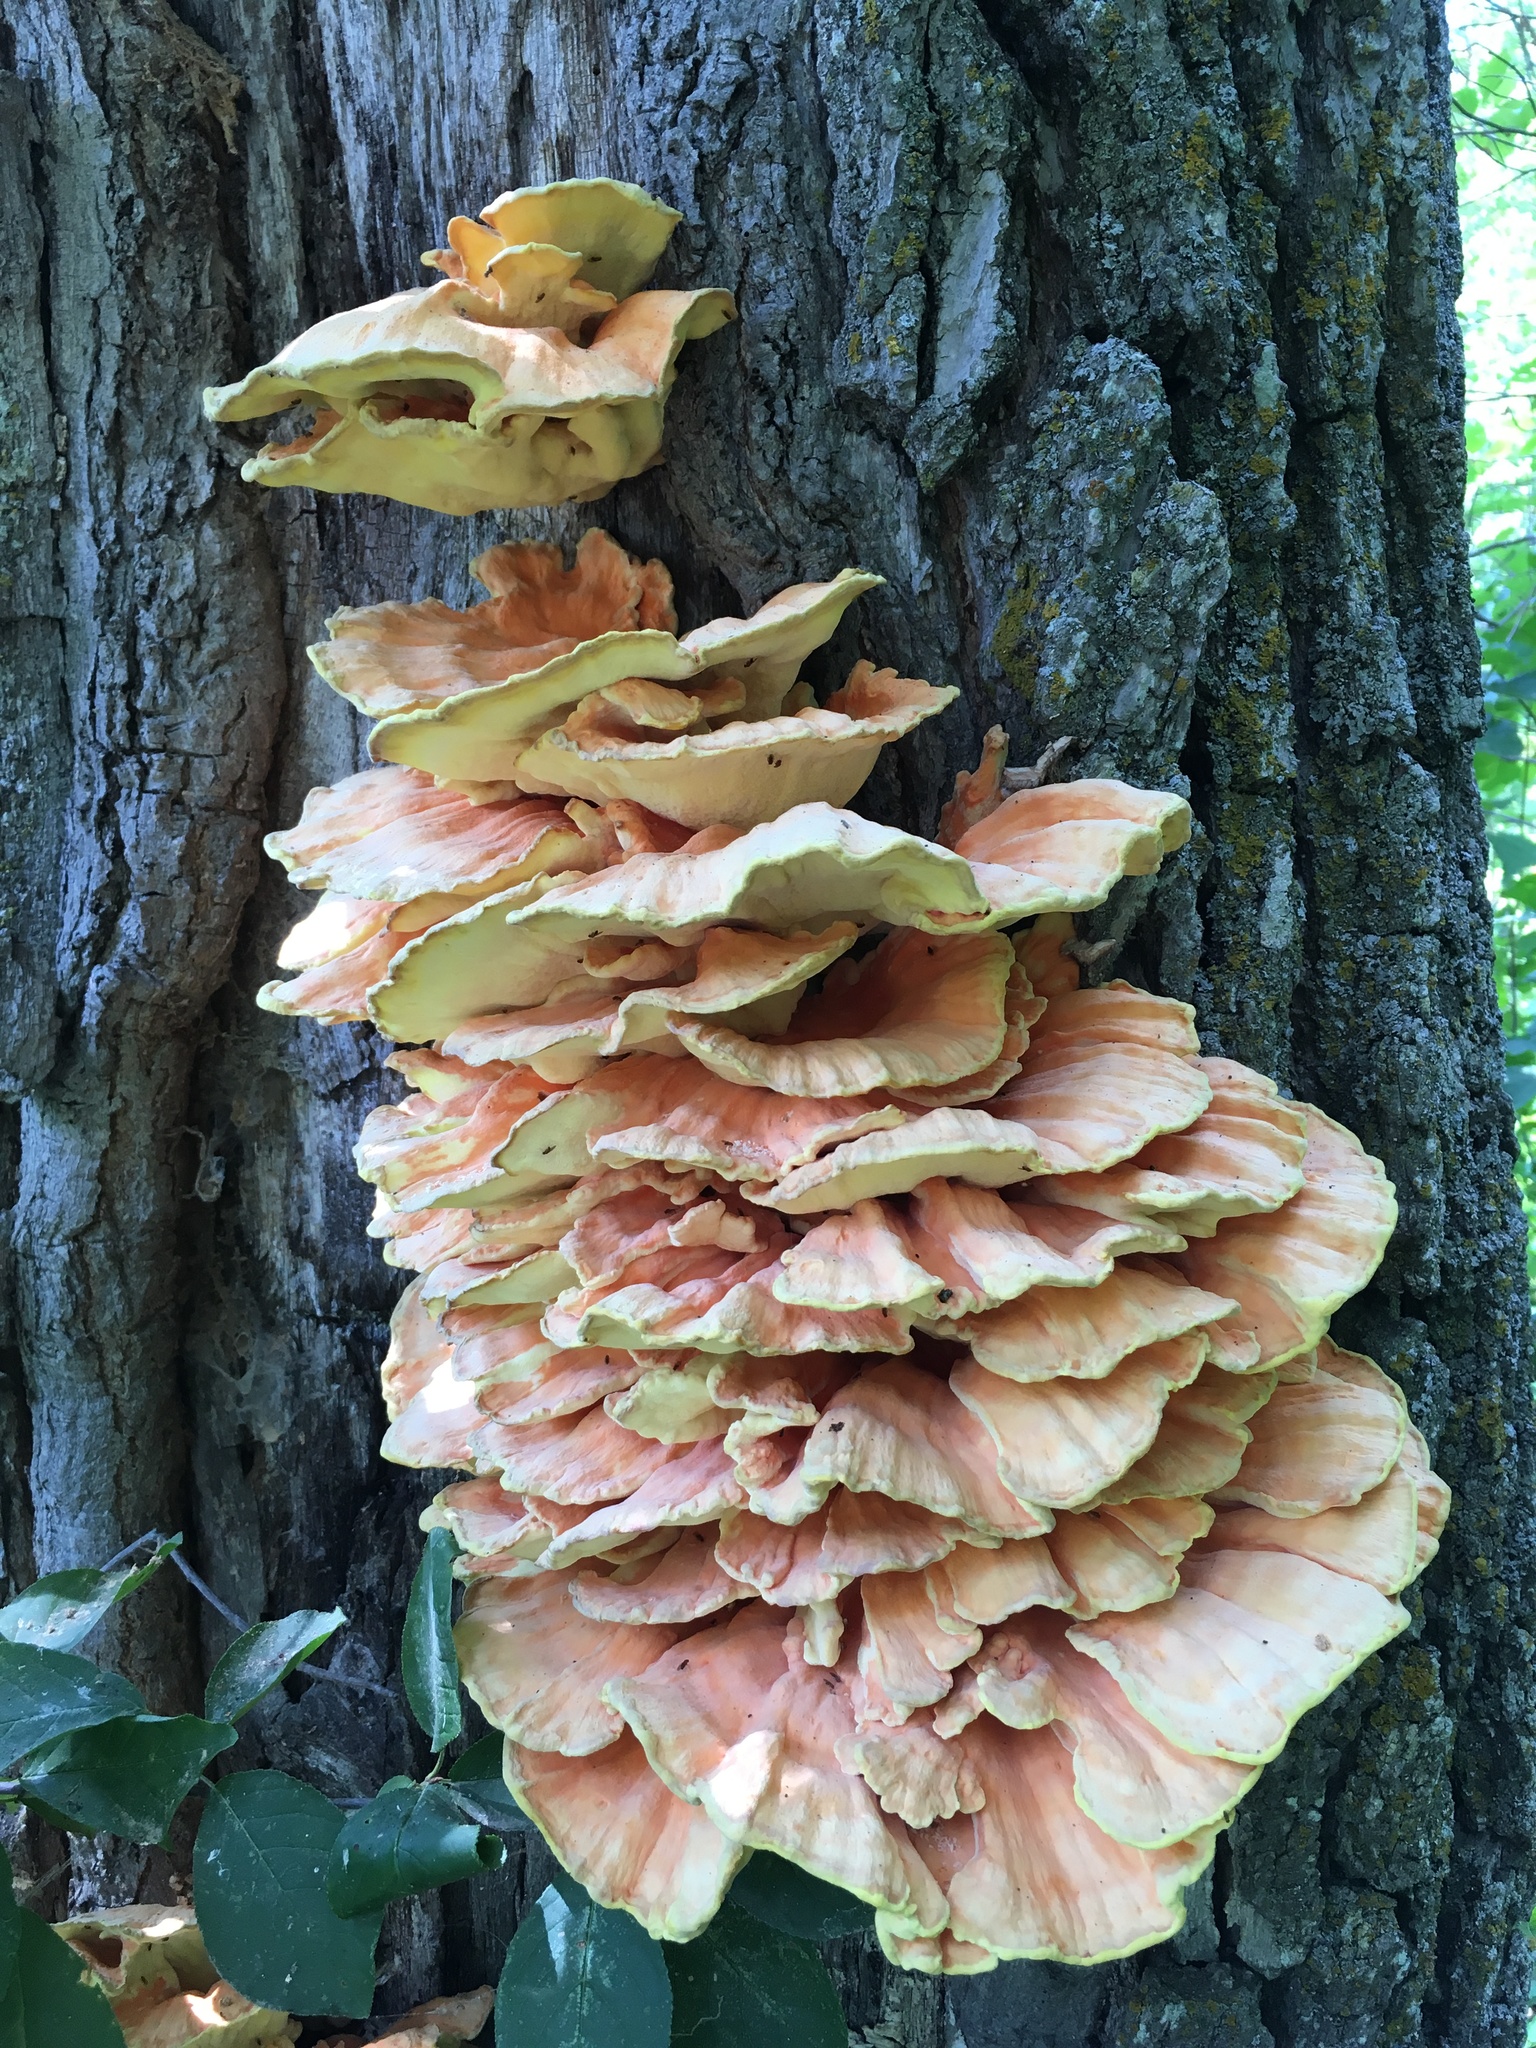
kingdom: Fungi
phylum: Basidiomycota
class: Agaricomycetes
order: Polyporales
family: Laetiporaceae
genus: Laetiporus
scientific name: Laetiporus sulphureus
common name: Chicken of the woods
